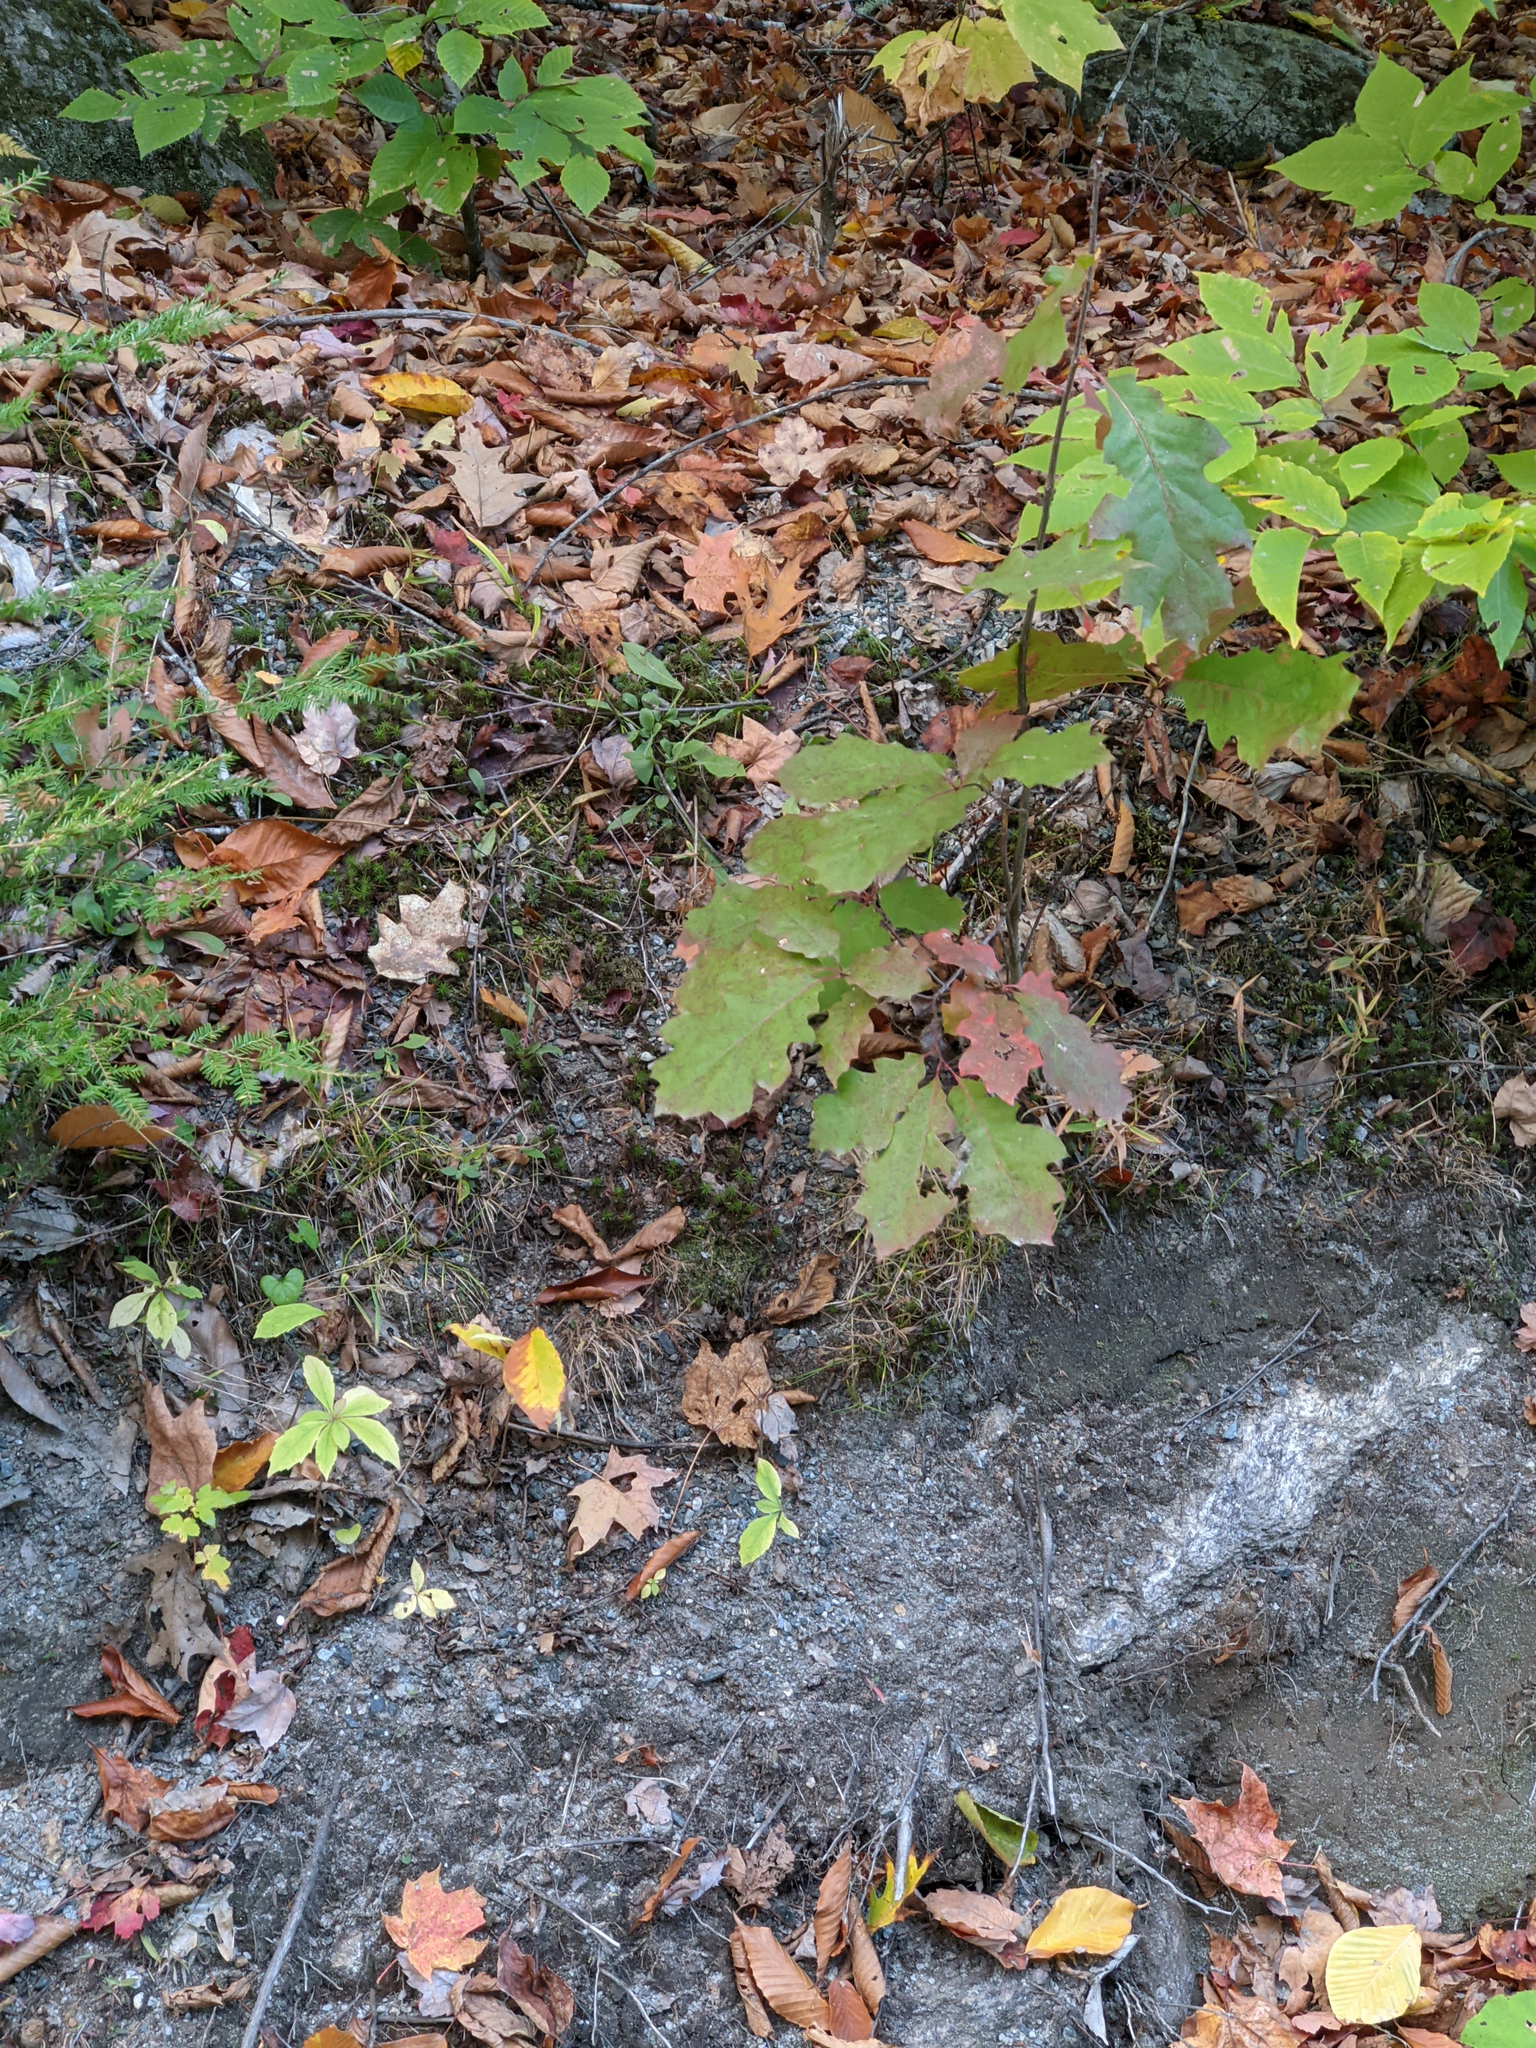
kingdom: Plantae
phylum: Tracheophyta
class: Magnoliopsida
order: Fagales
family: Fagaceae
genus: Quercus
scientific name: Quercus rubra
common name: Red oak
